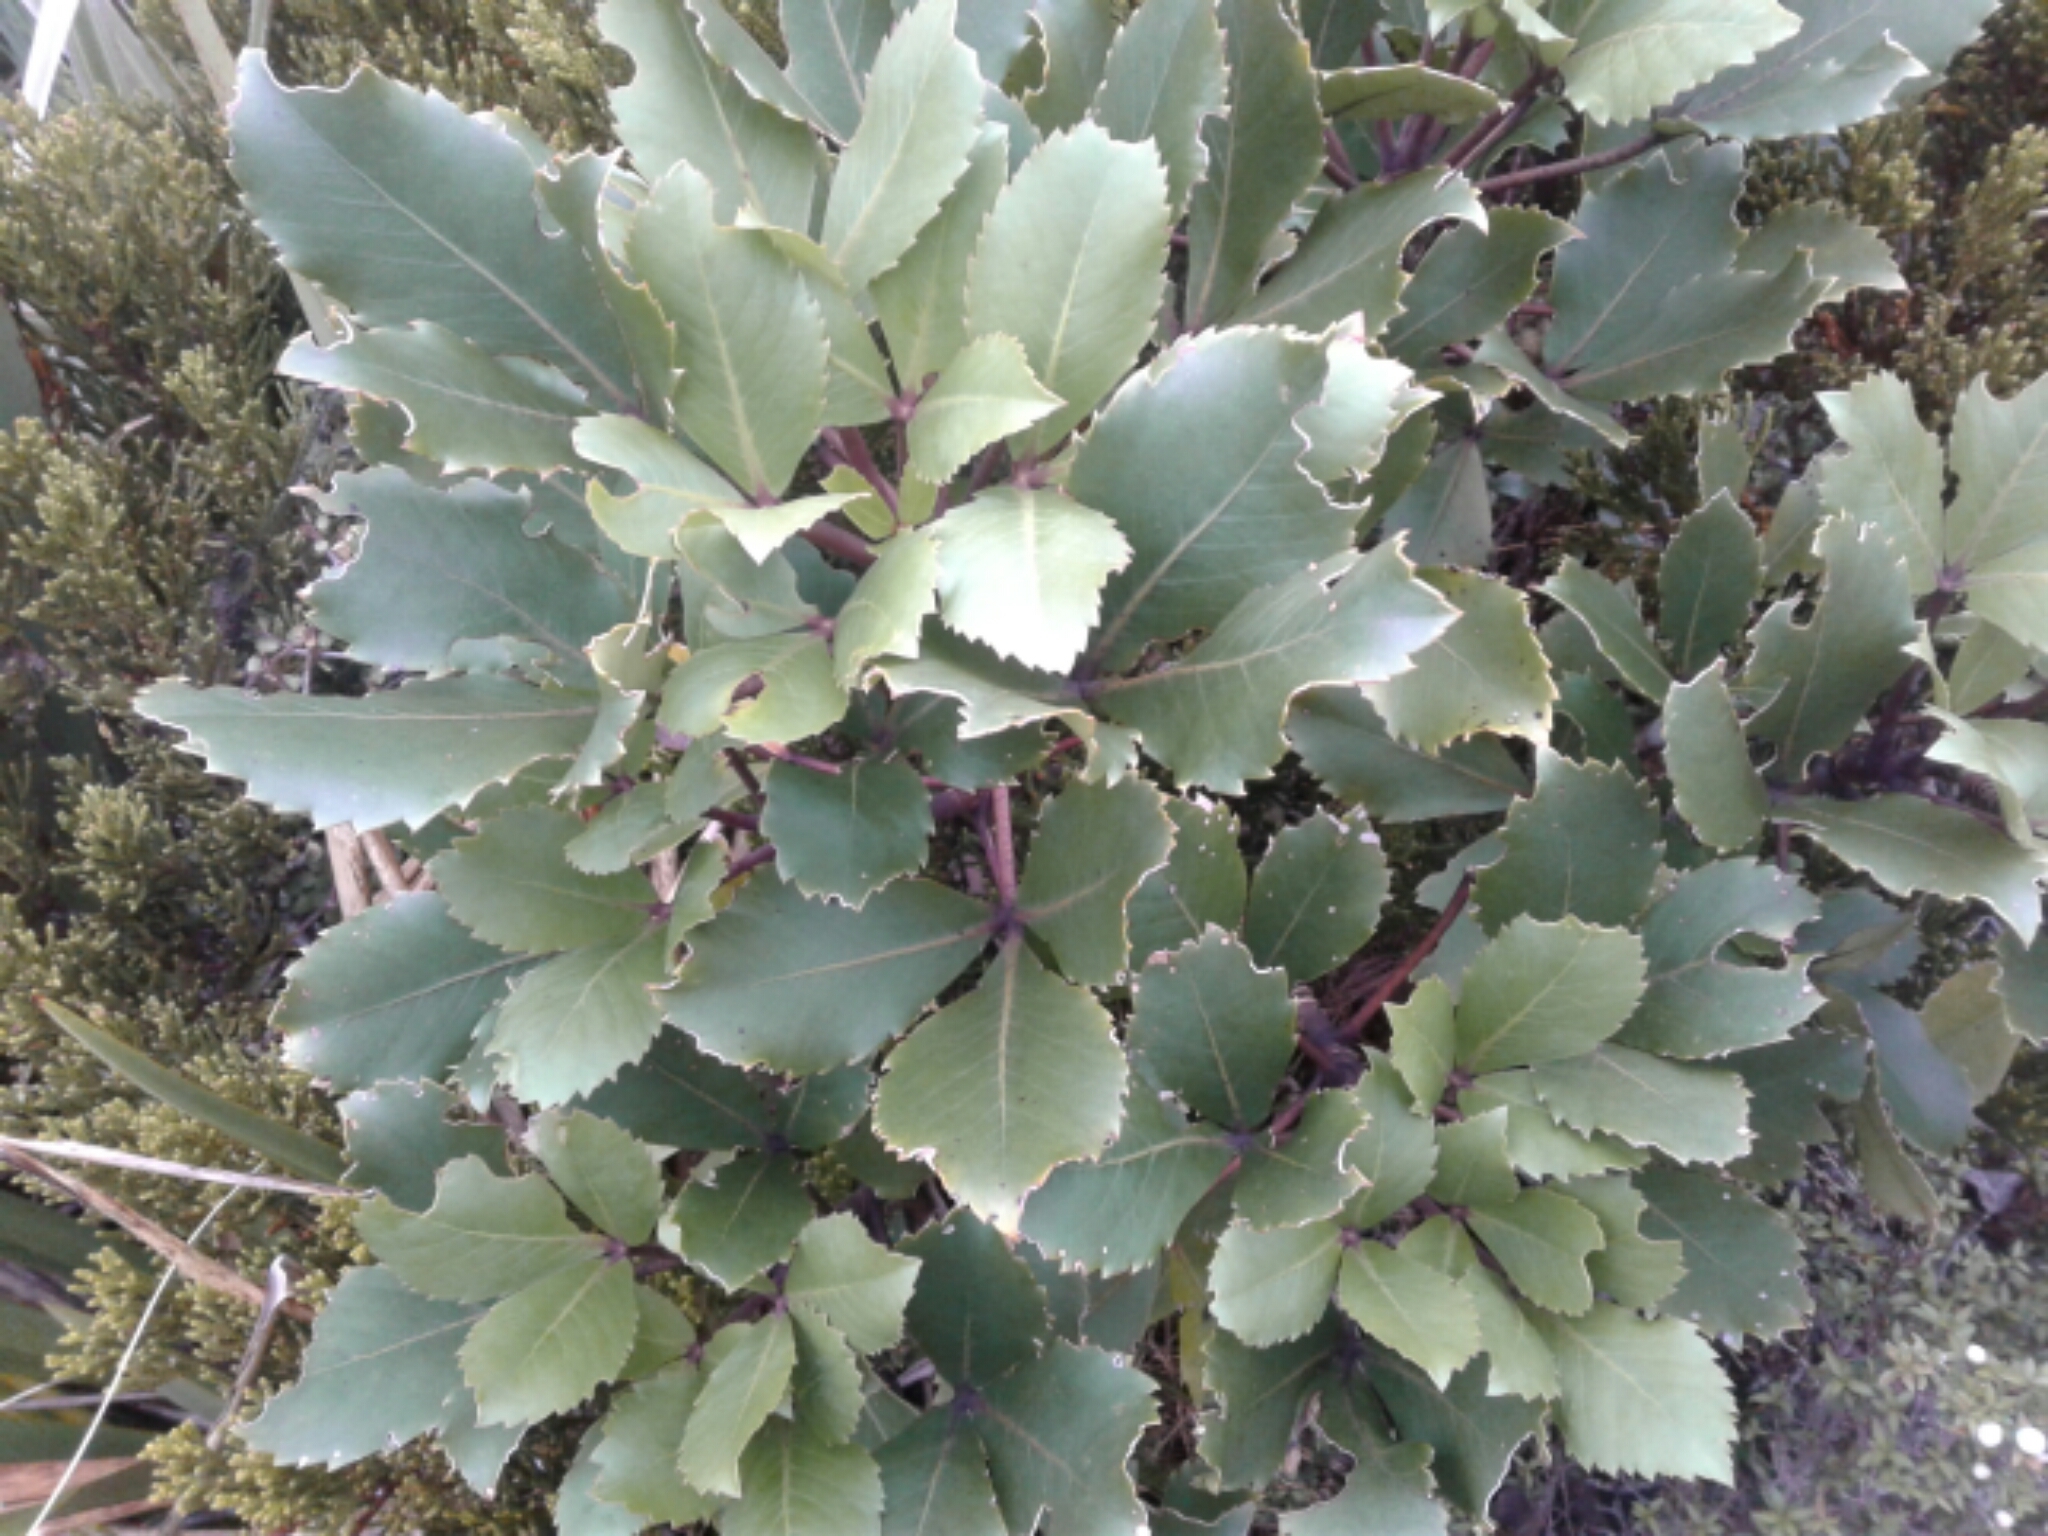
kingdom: Plantae
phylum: Tracheophyta
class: Magnoliopsida
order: Apiales
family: Araliaceae
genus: Neopanax
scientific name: Neopanax colensoi
